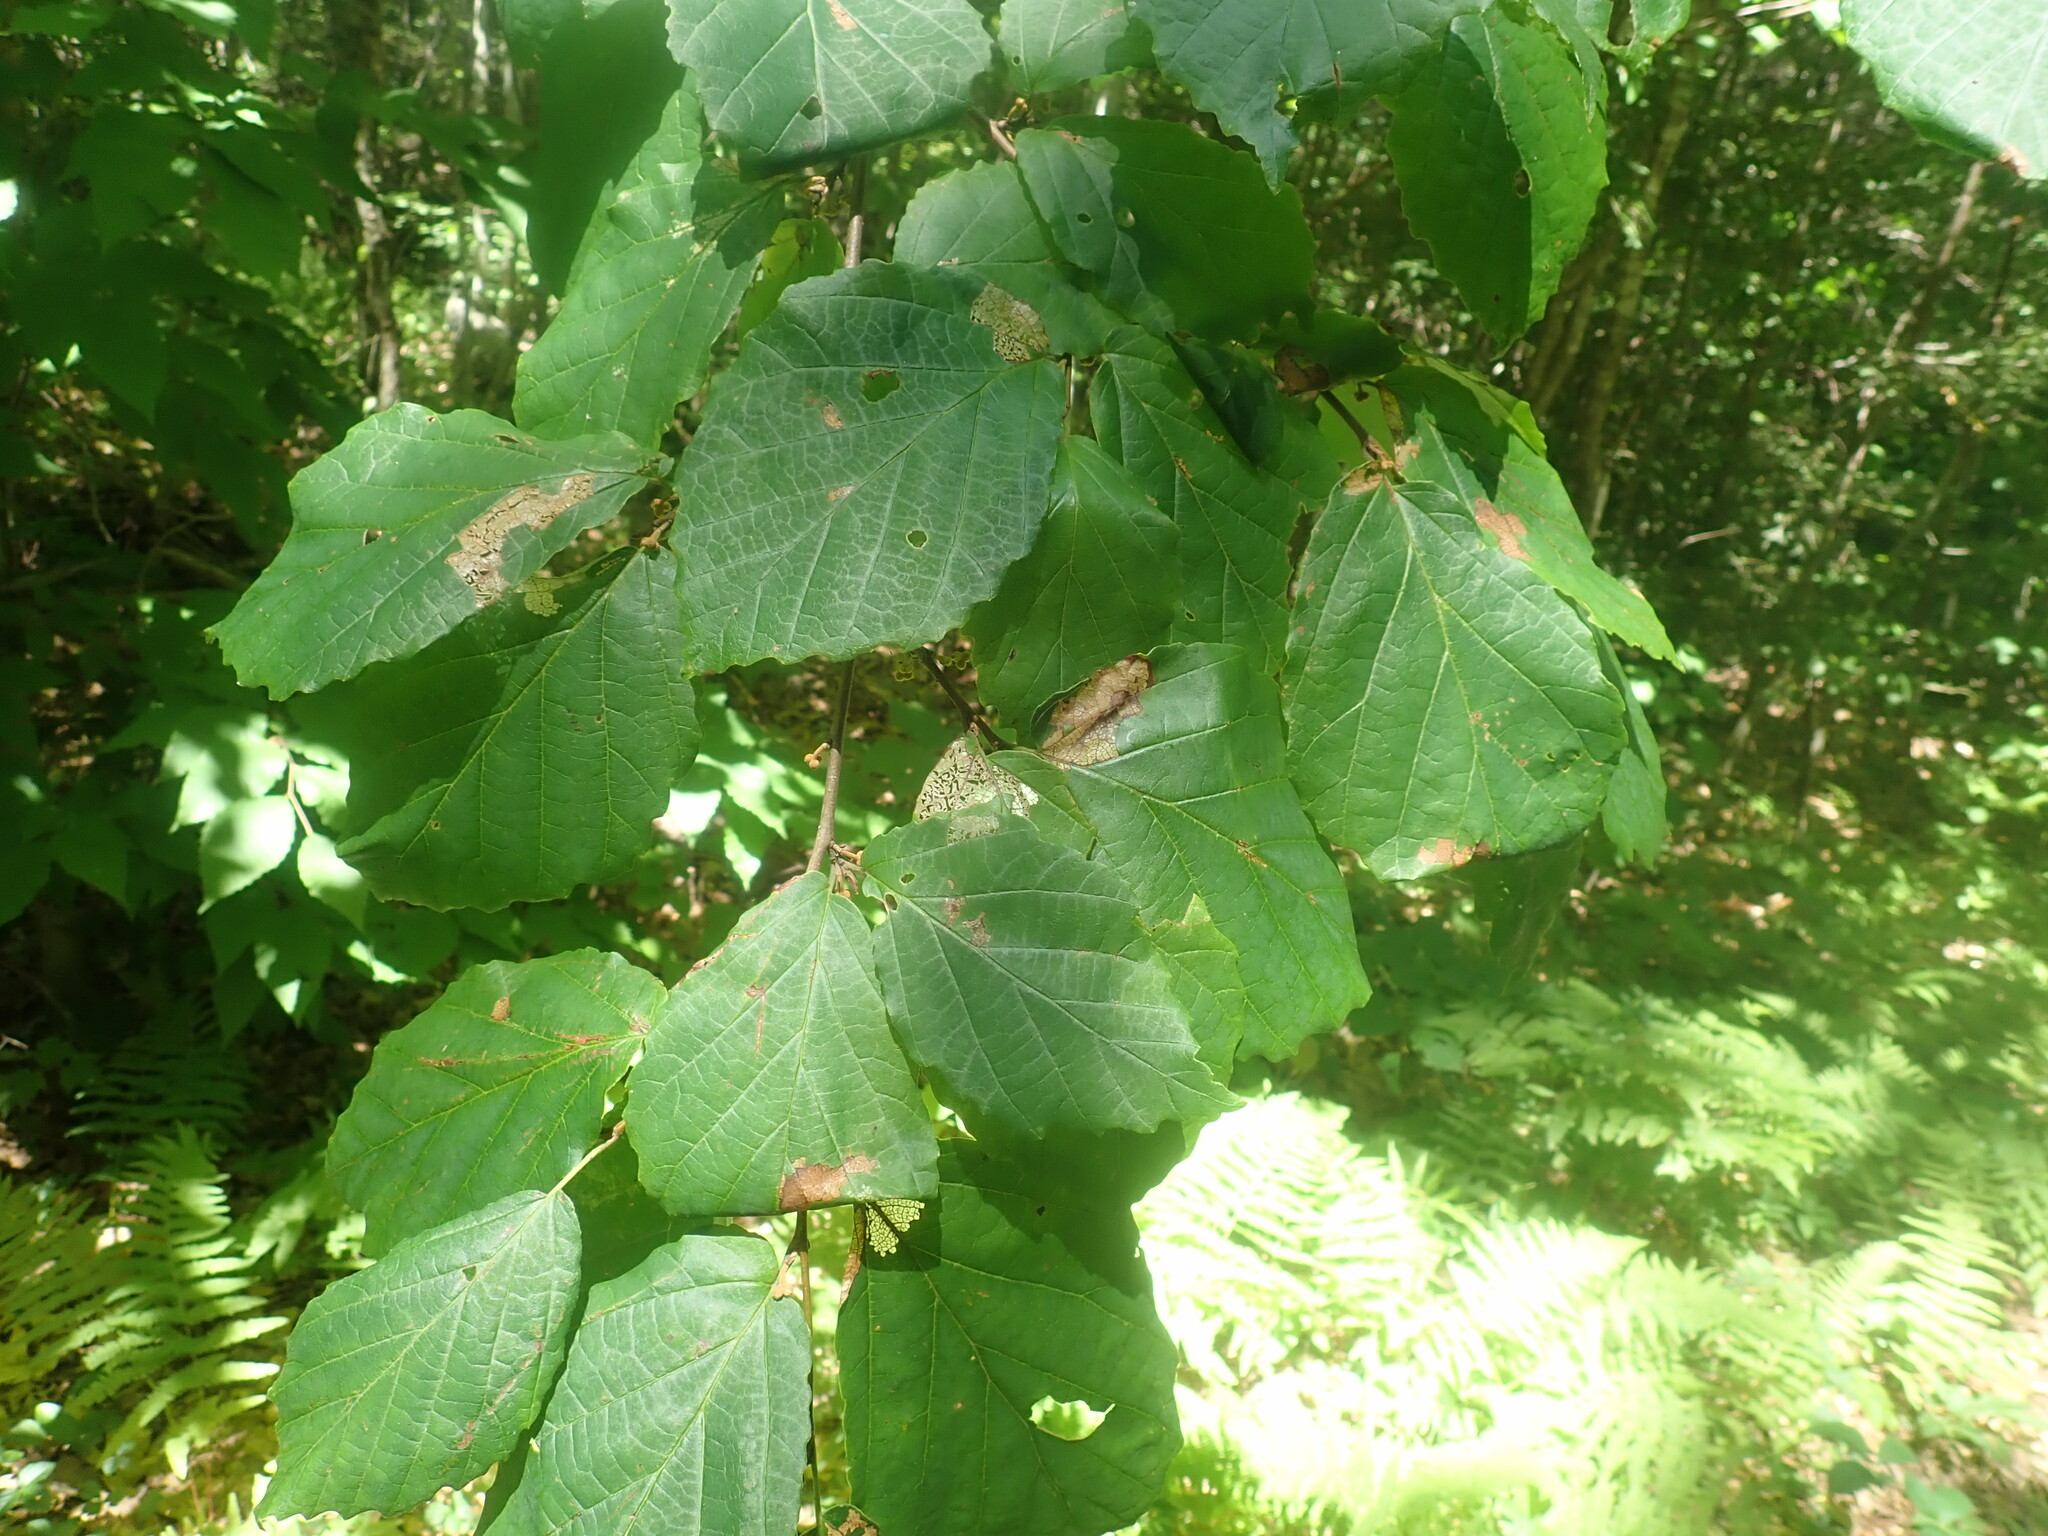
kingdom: Plantae
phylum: Tracheophyta
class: Magnoliopsida
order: Saxifragales
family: Hamamelidaceae
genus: Hamamelis
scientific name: Hamamelis virginiana
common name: Witch-hazel
